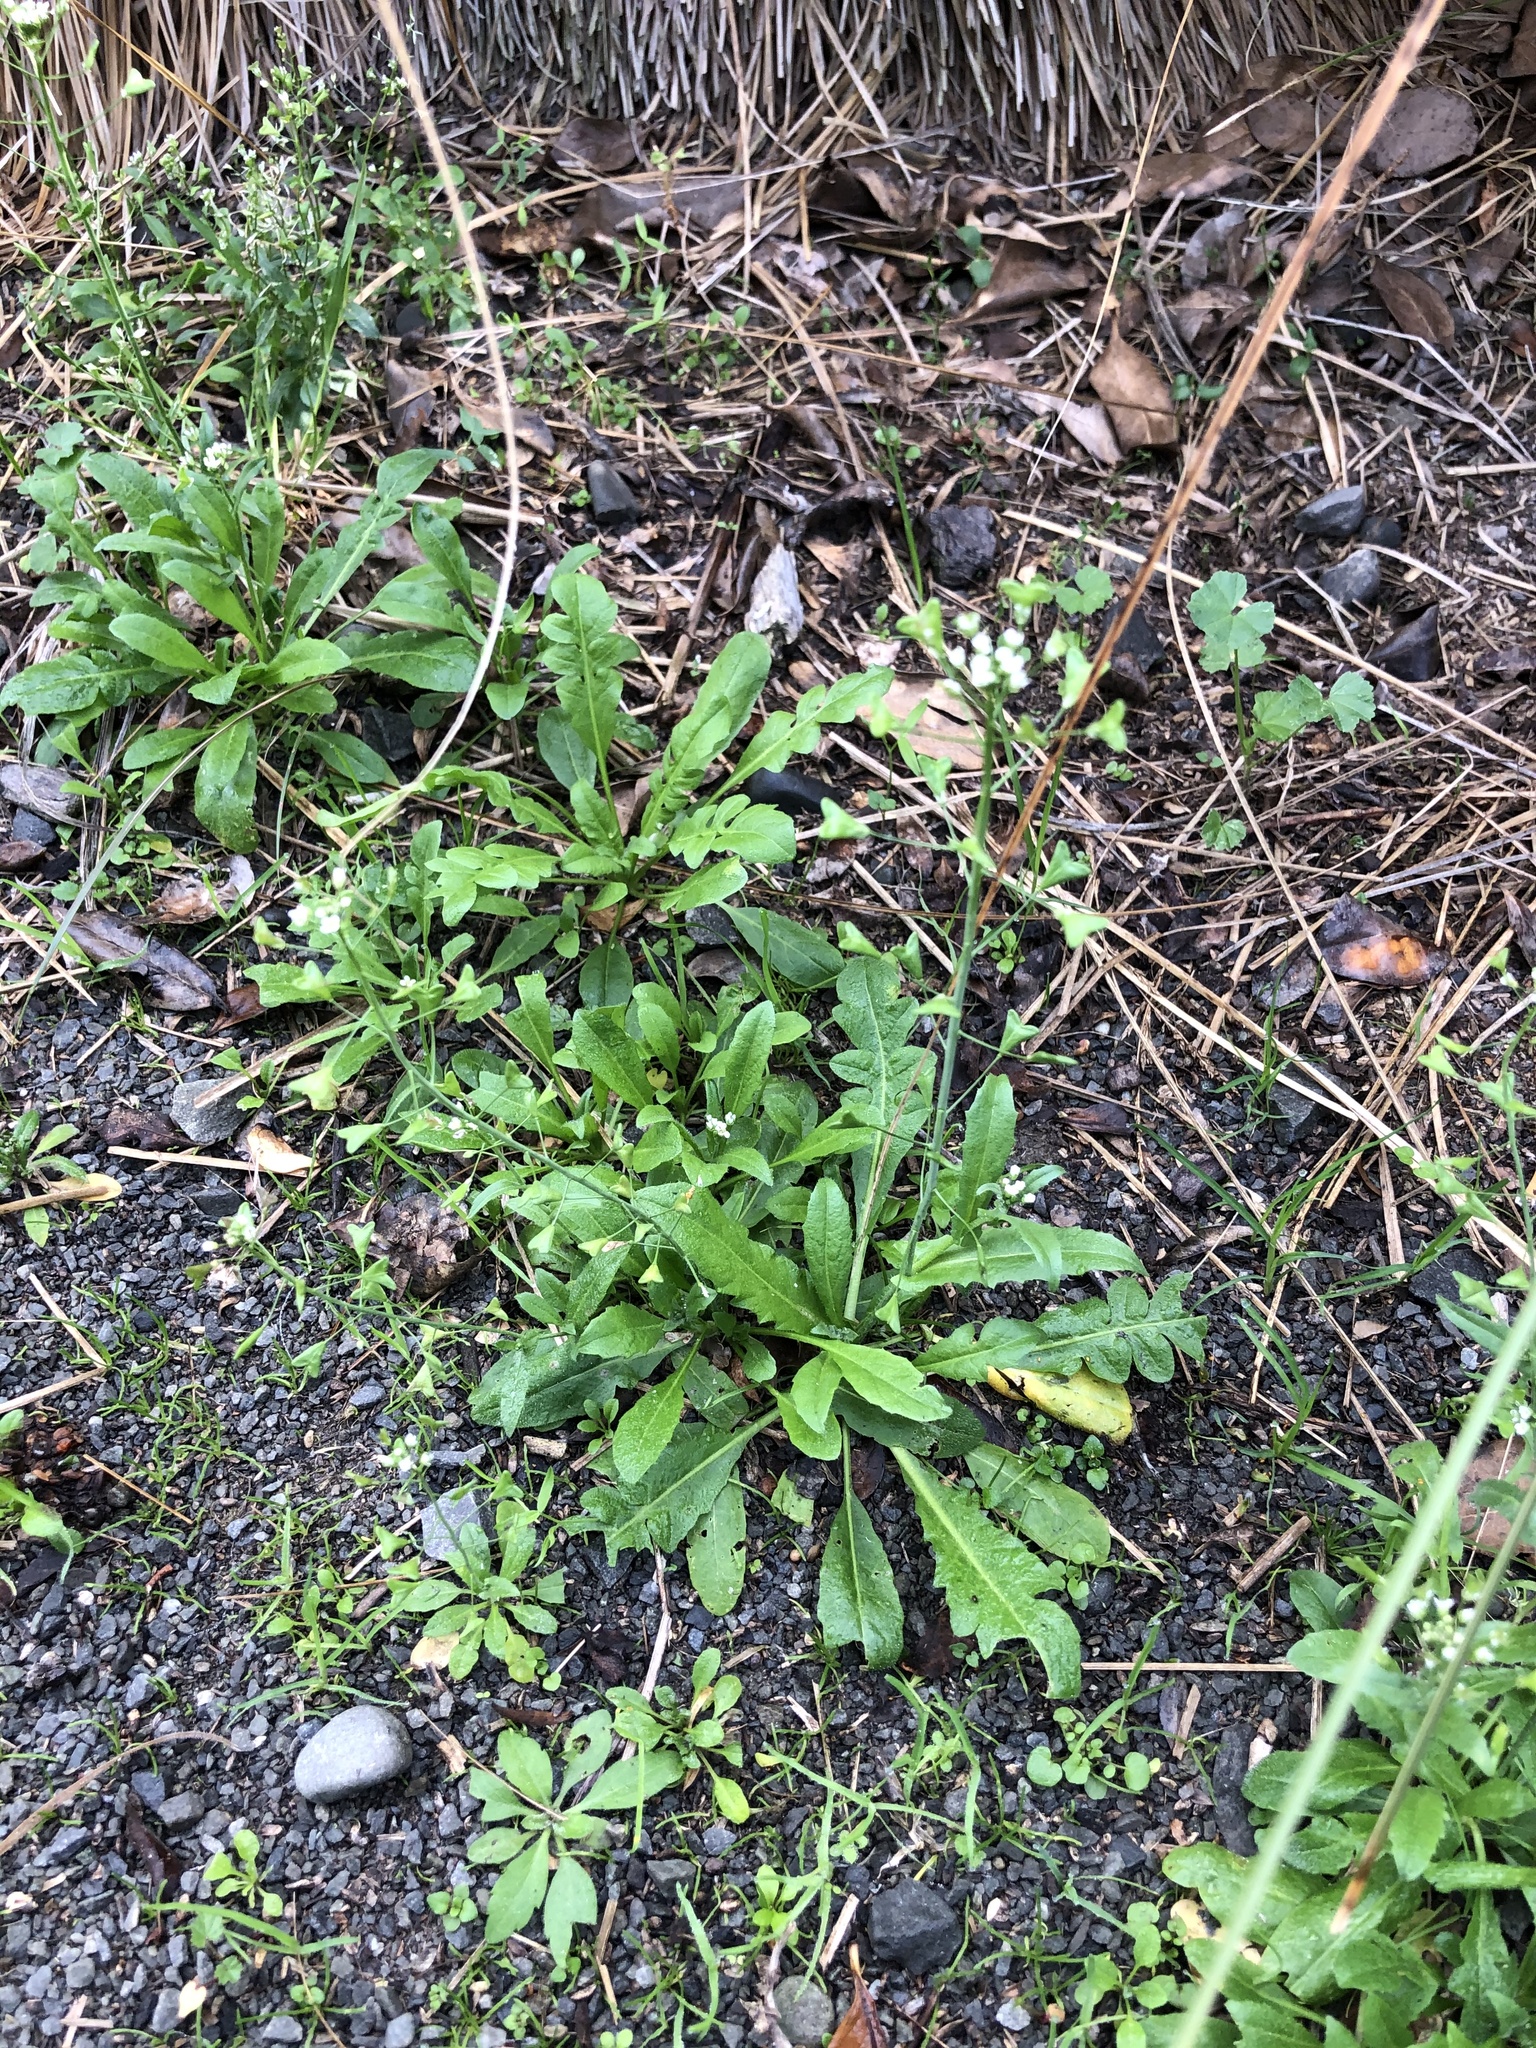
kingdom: Plantae
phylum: Tracheophyta
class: Magnoliopsida
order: Brassicales
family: Brassicaceae
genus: Capsella
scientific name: Capsella bursa-pastoris
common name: Shepherd's purse
